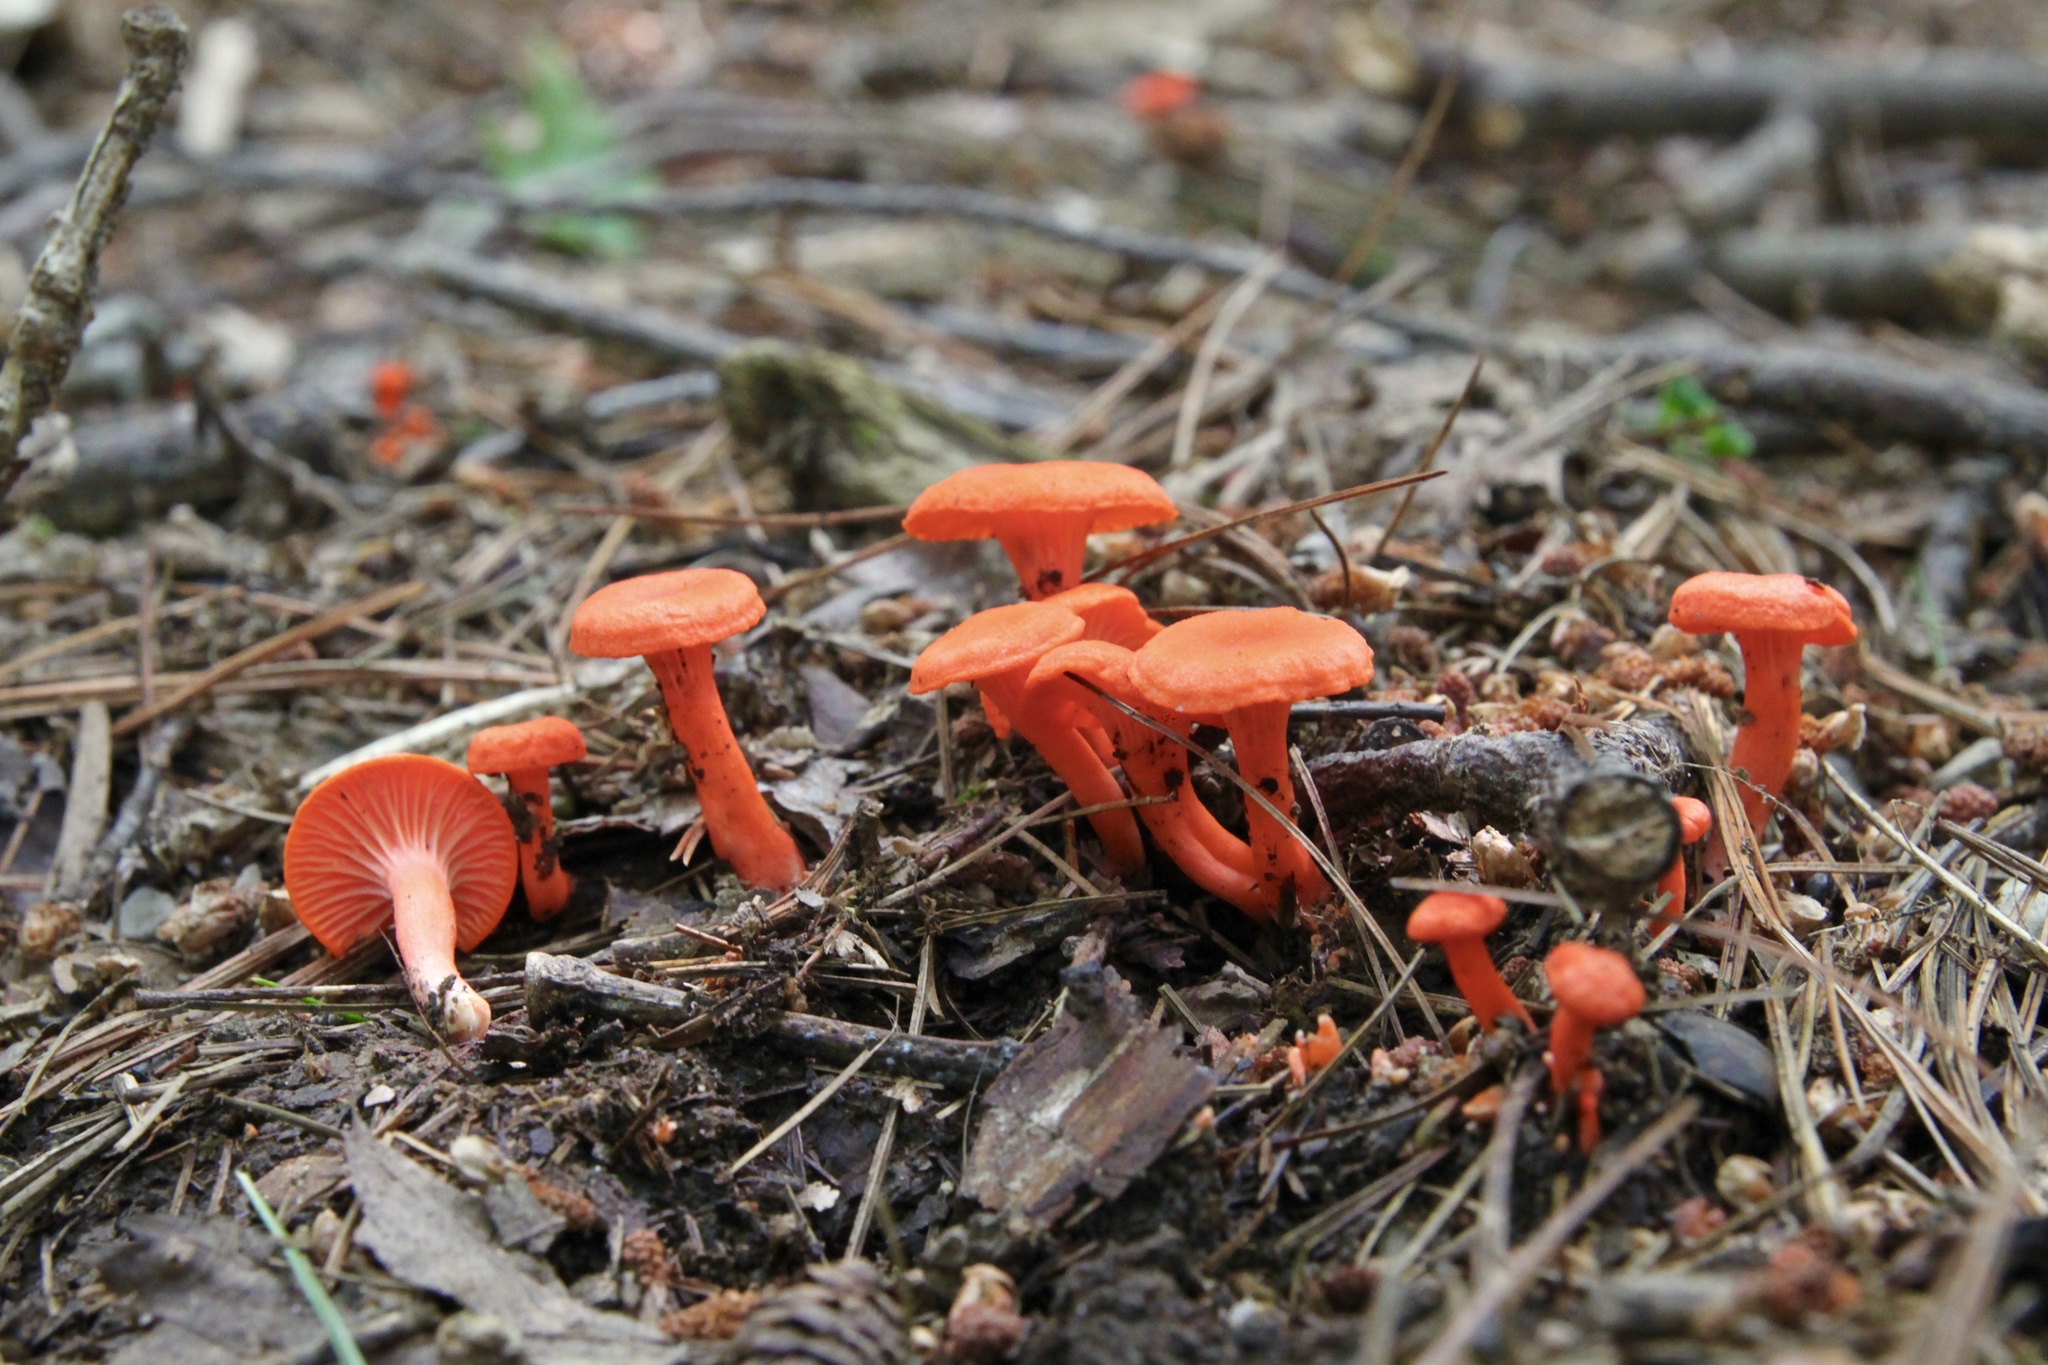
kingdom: Fungi
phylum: Basidiomycota
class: Agaricomycetes
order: Cantharellales
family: Hydnaceae
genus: Cantharellus
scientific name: Cantharellus cinnabarinus
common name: Cinnabar chanterelle
